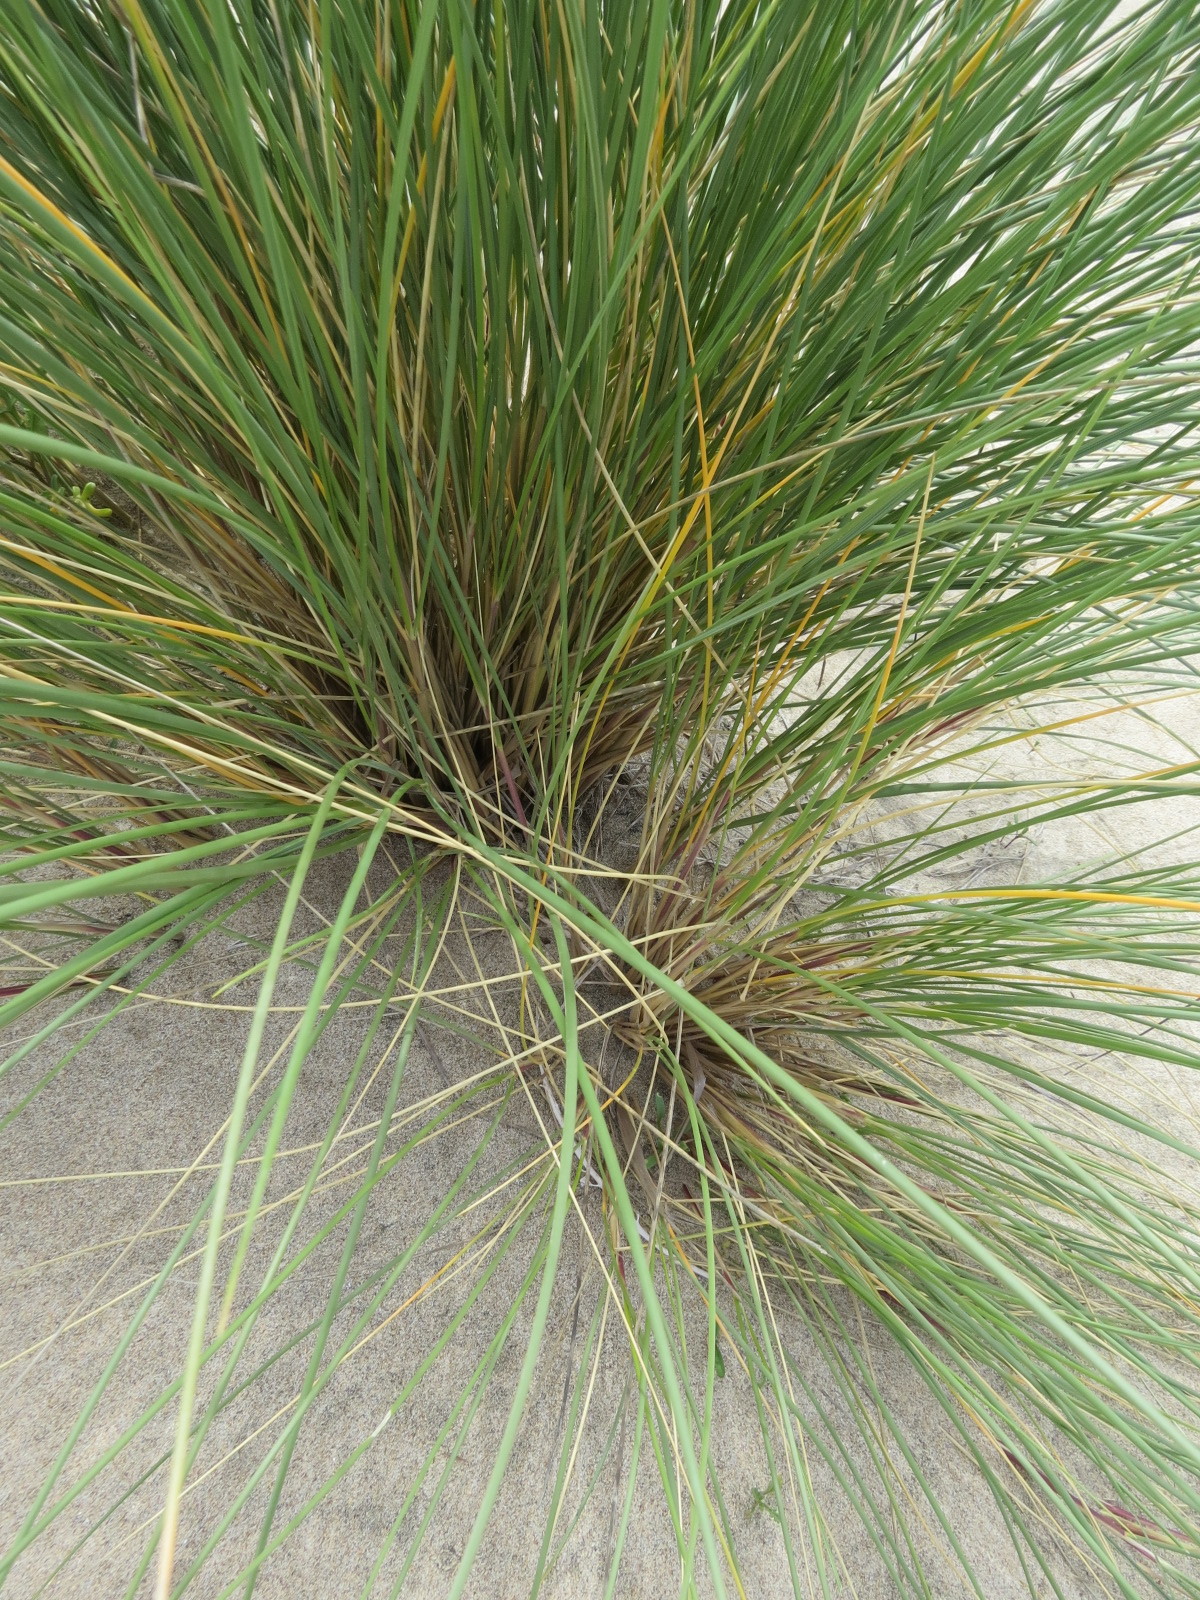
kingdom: Plantae
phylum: Tracheophyta
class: Liliopsida
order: Poales
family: Poaceae
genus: Calamagrostis
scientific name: Calamagrostis arenaria
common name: European beachgrass
